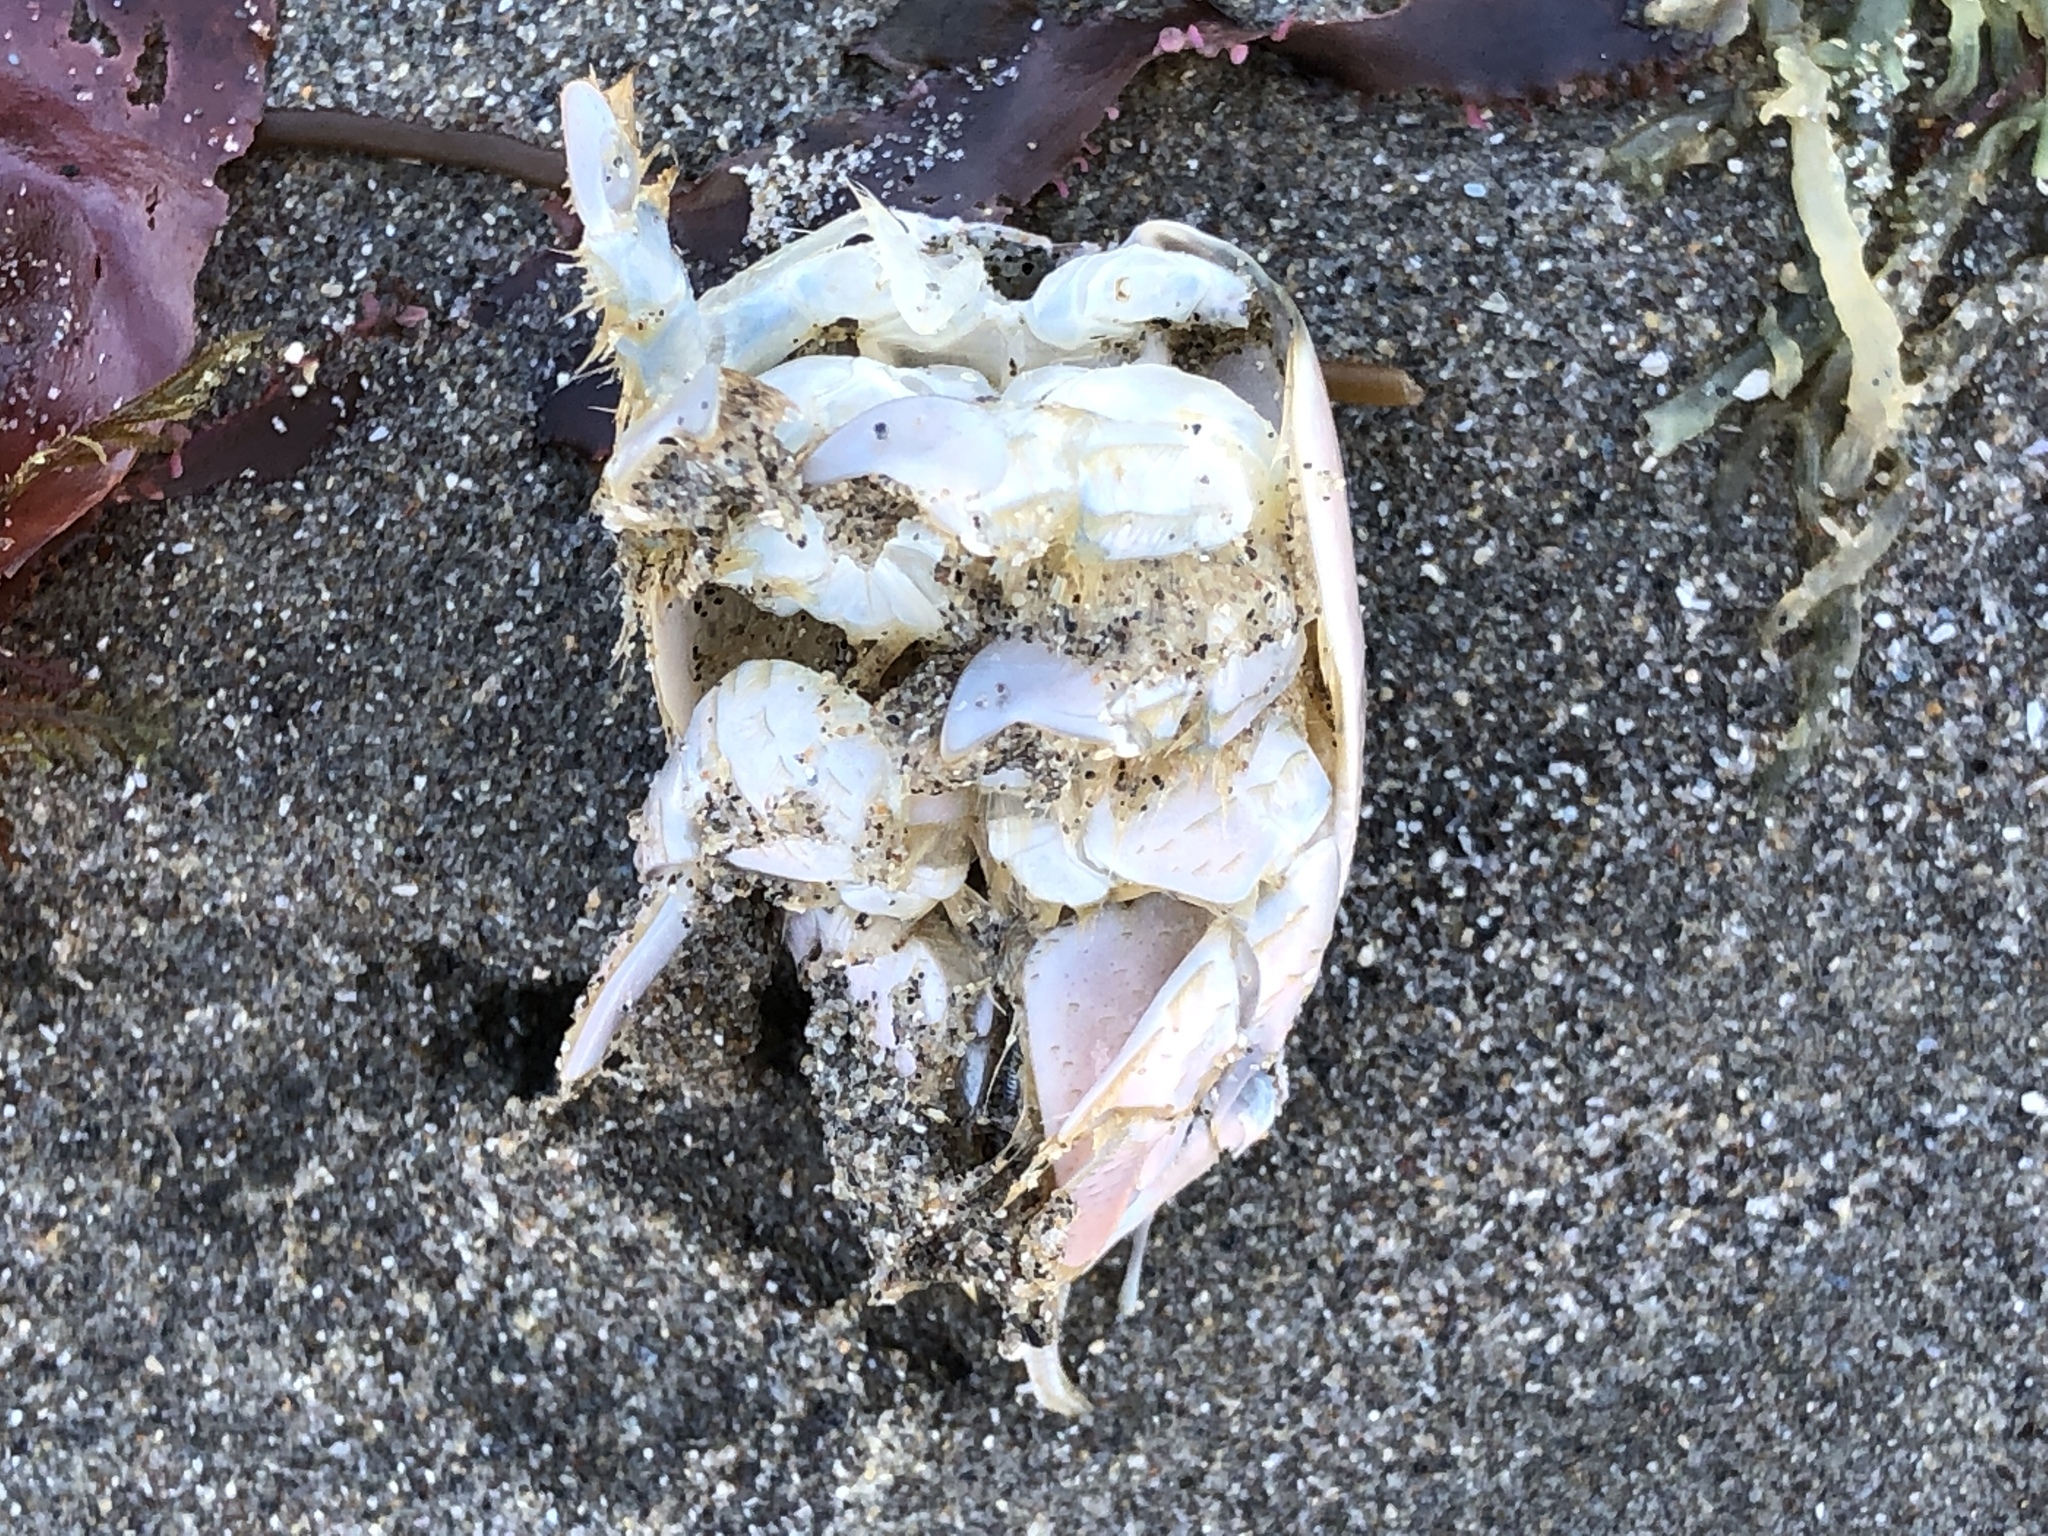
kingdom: Animalia
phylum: Arthropoda
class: Malacostraca
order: Decapoda
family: Hippidae
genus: Emerita
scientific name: Emerita analoga
